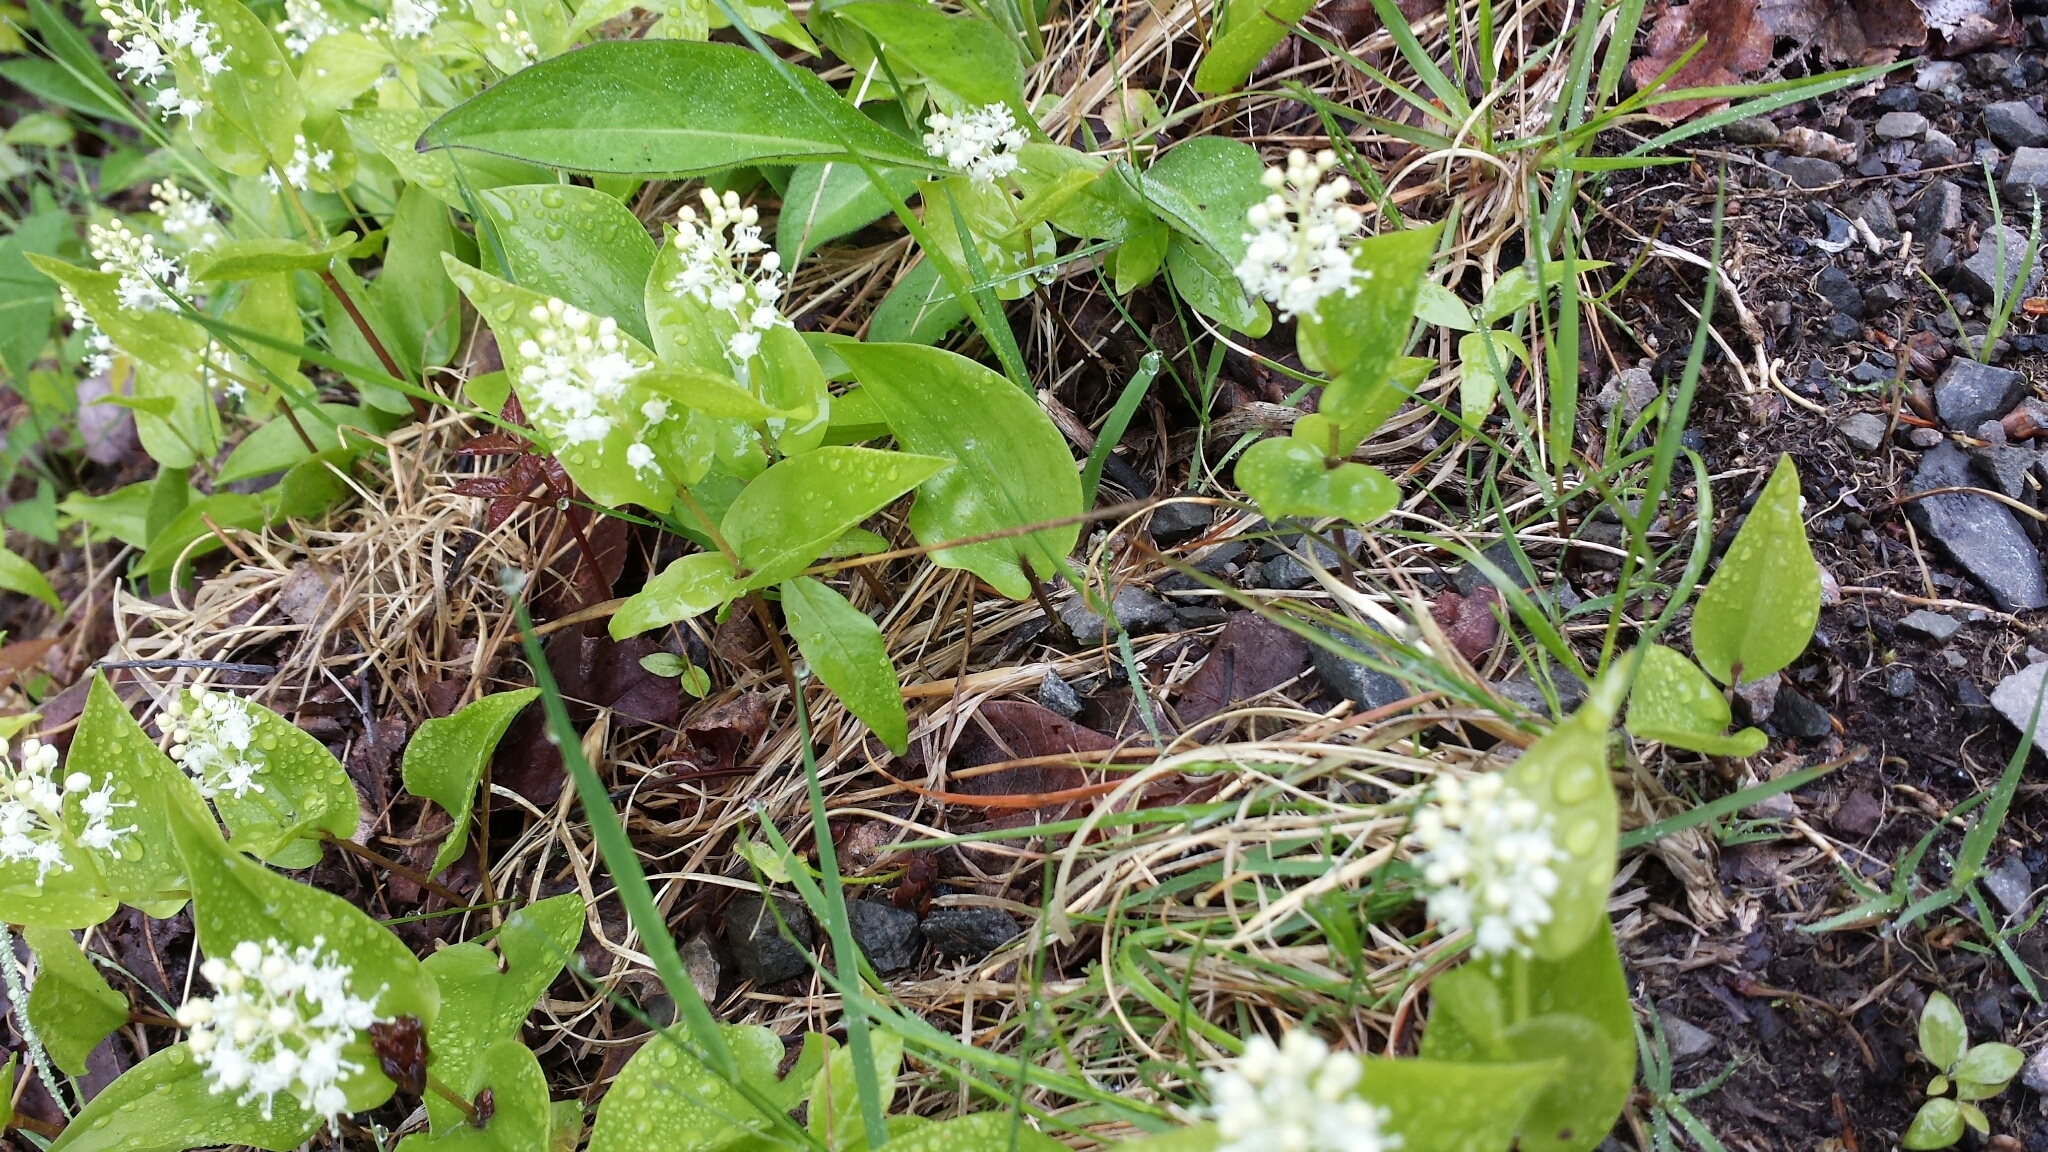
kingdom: Plantae
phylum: Tracheophyta
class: Liliopsida
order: Asparagales
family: Asparagaceae
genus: Maianthemum
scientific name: Maianthemum canadense
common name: False lily-of-the-valley
